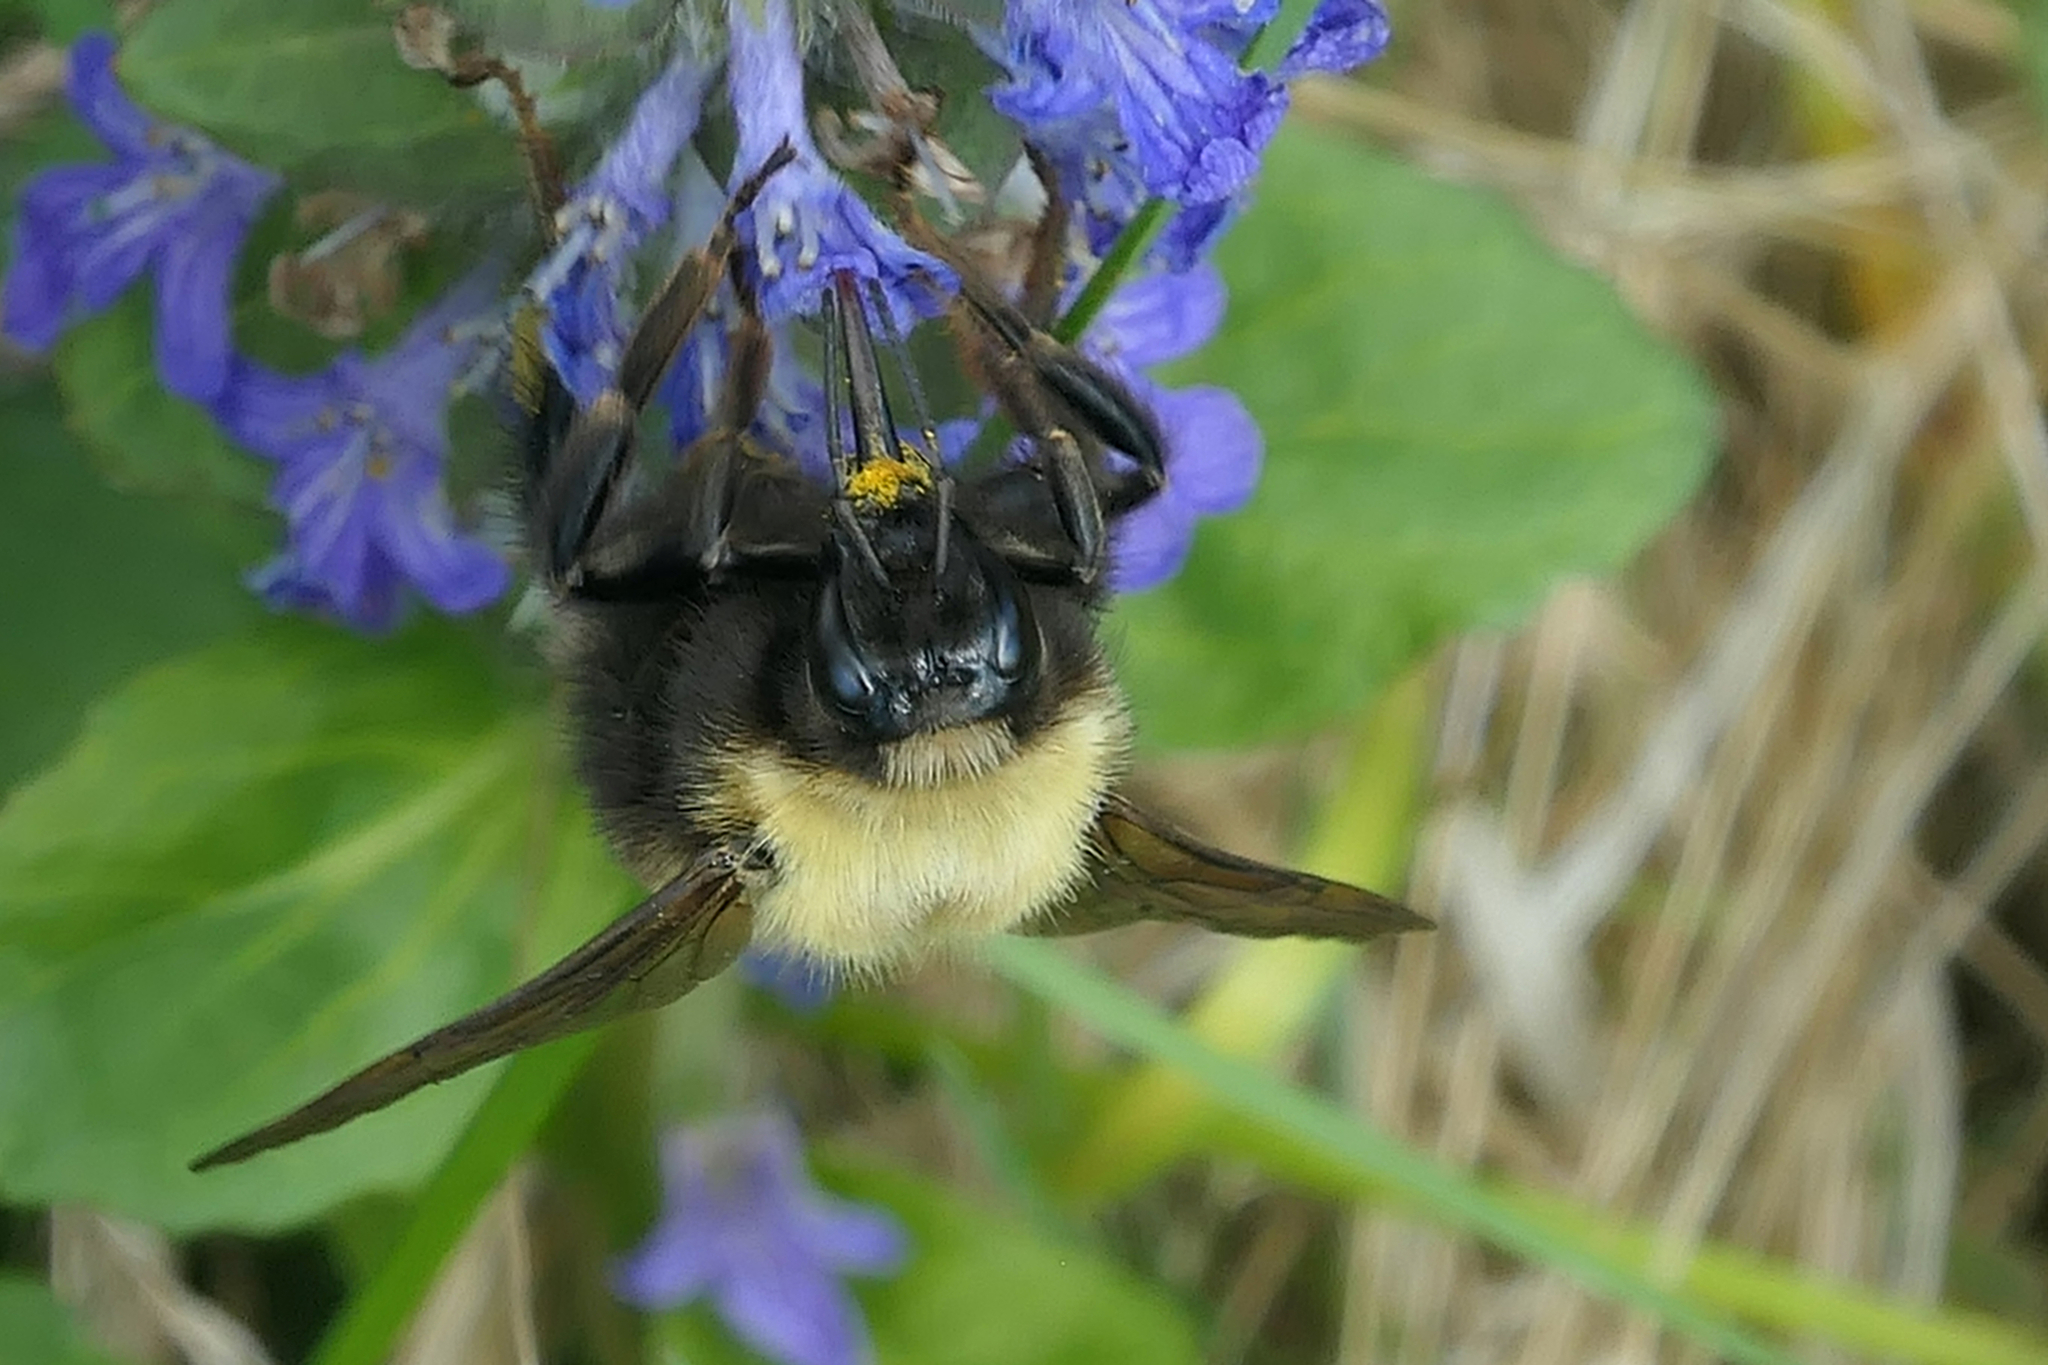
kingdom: Animalia
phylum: Arthropoda
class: Insecta
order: Hymenoptera
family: Apidae
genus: Bombus
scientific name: Bombus perplexus
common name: Confusing bumble bee
